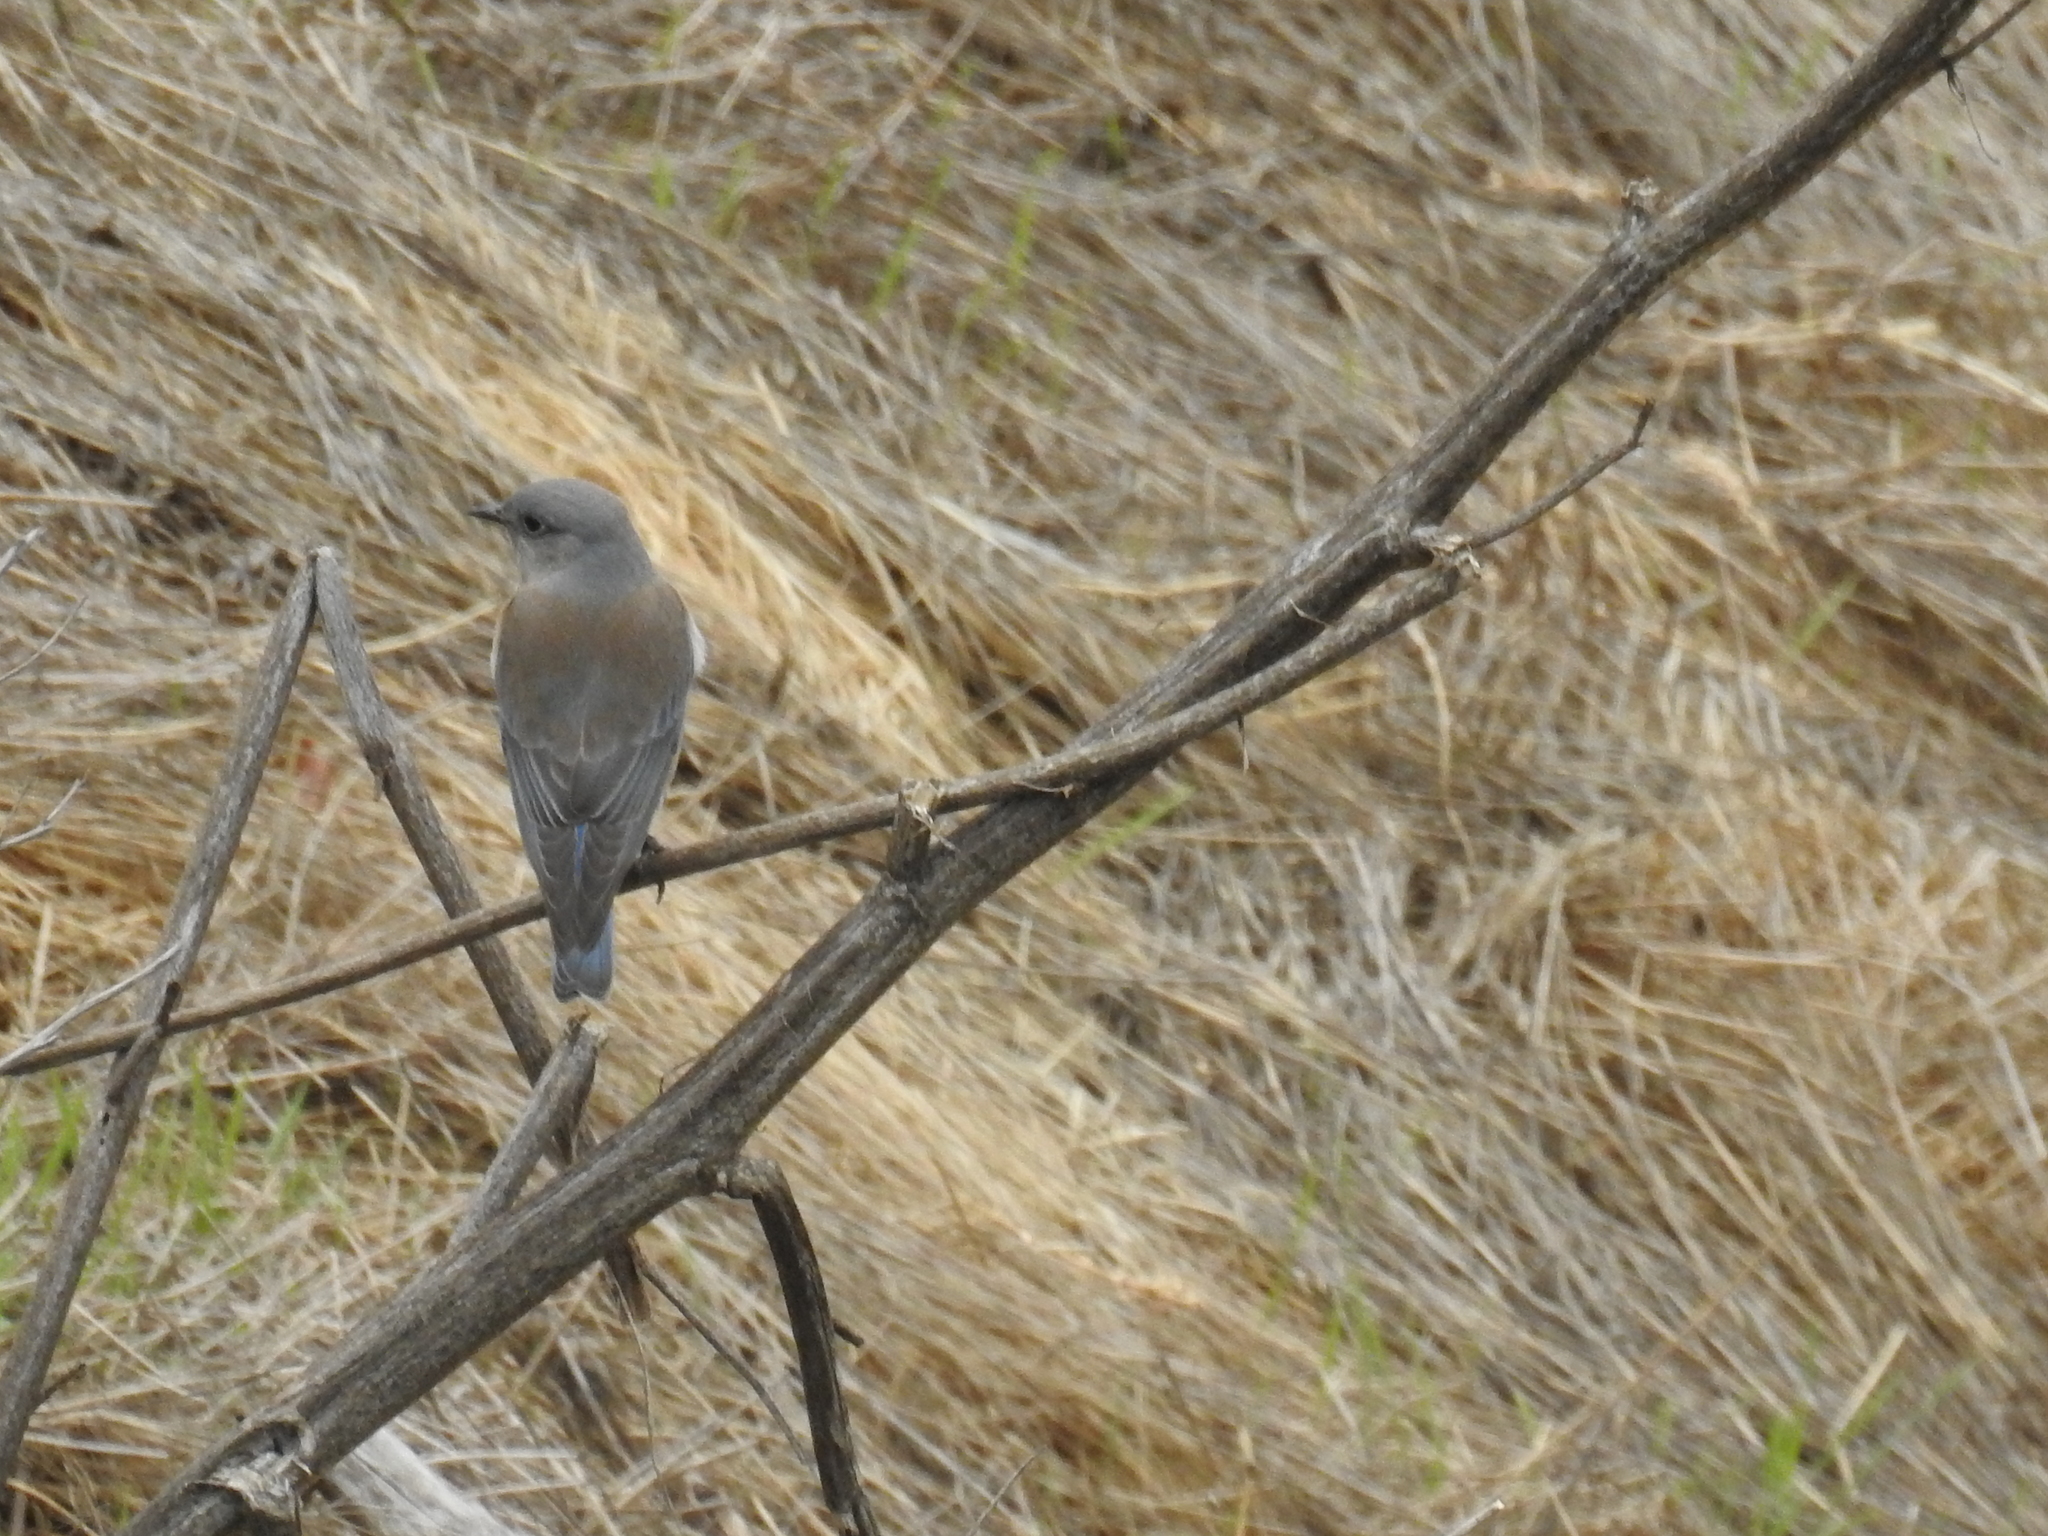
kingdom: Animalia
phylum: Chordata
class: Aves
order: Passeriformes
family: Turdidae
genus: Sialia
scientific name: Sialia mexicana
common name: Western bluebird
